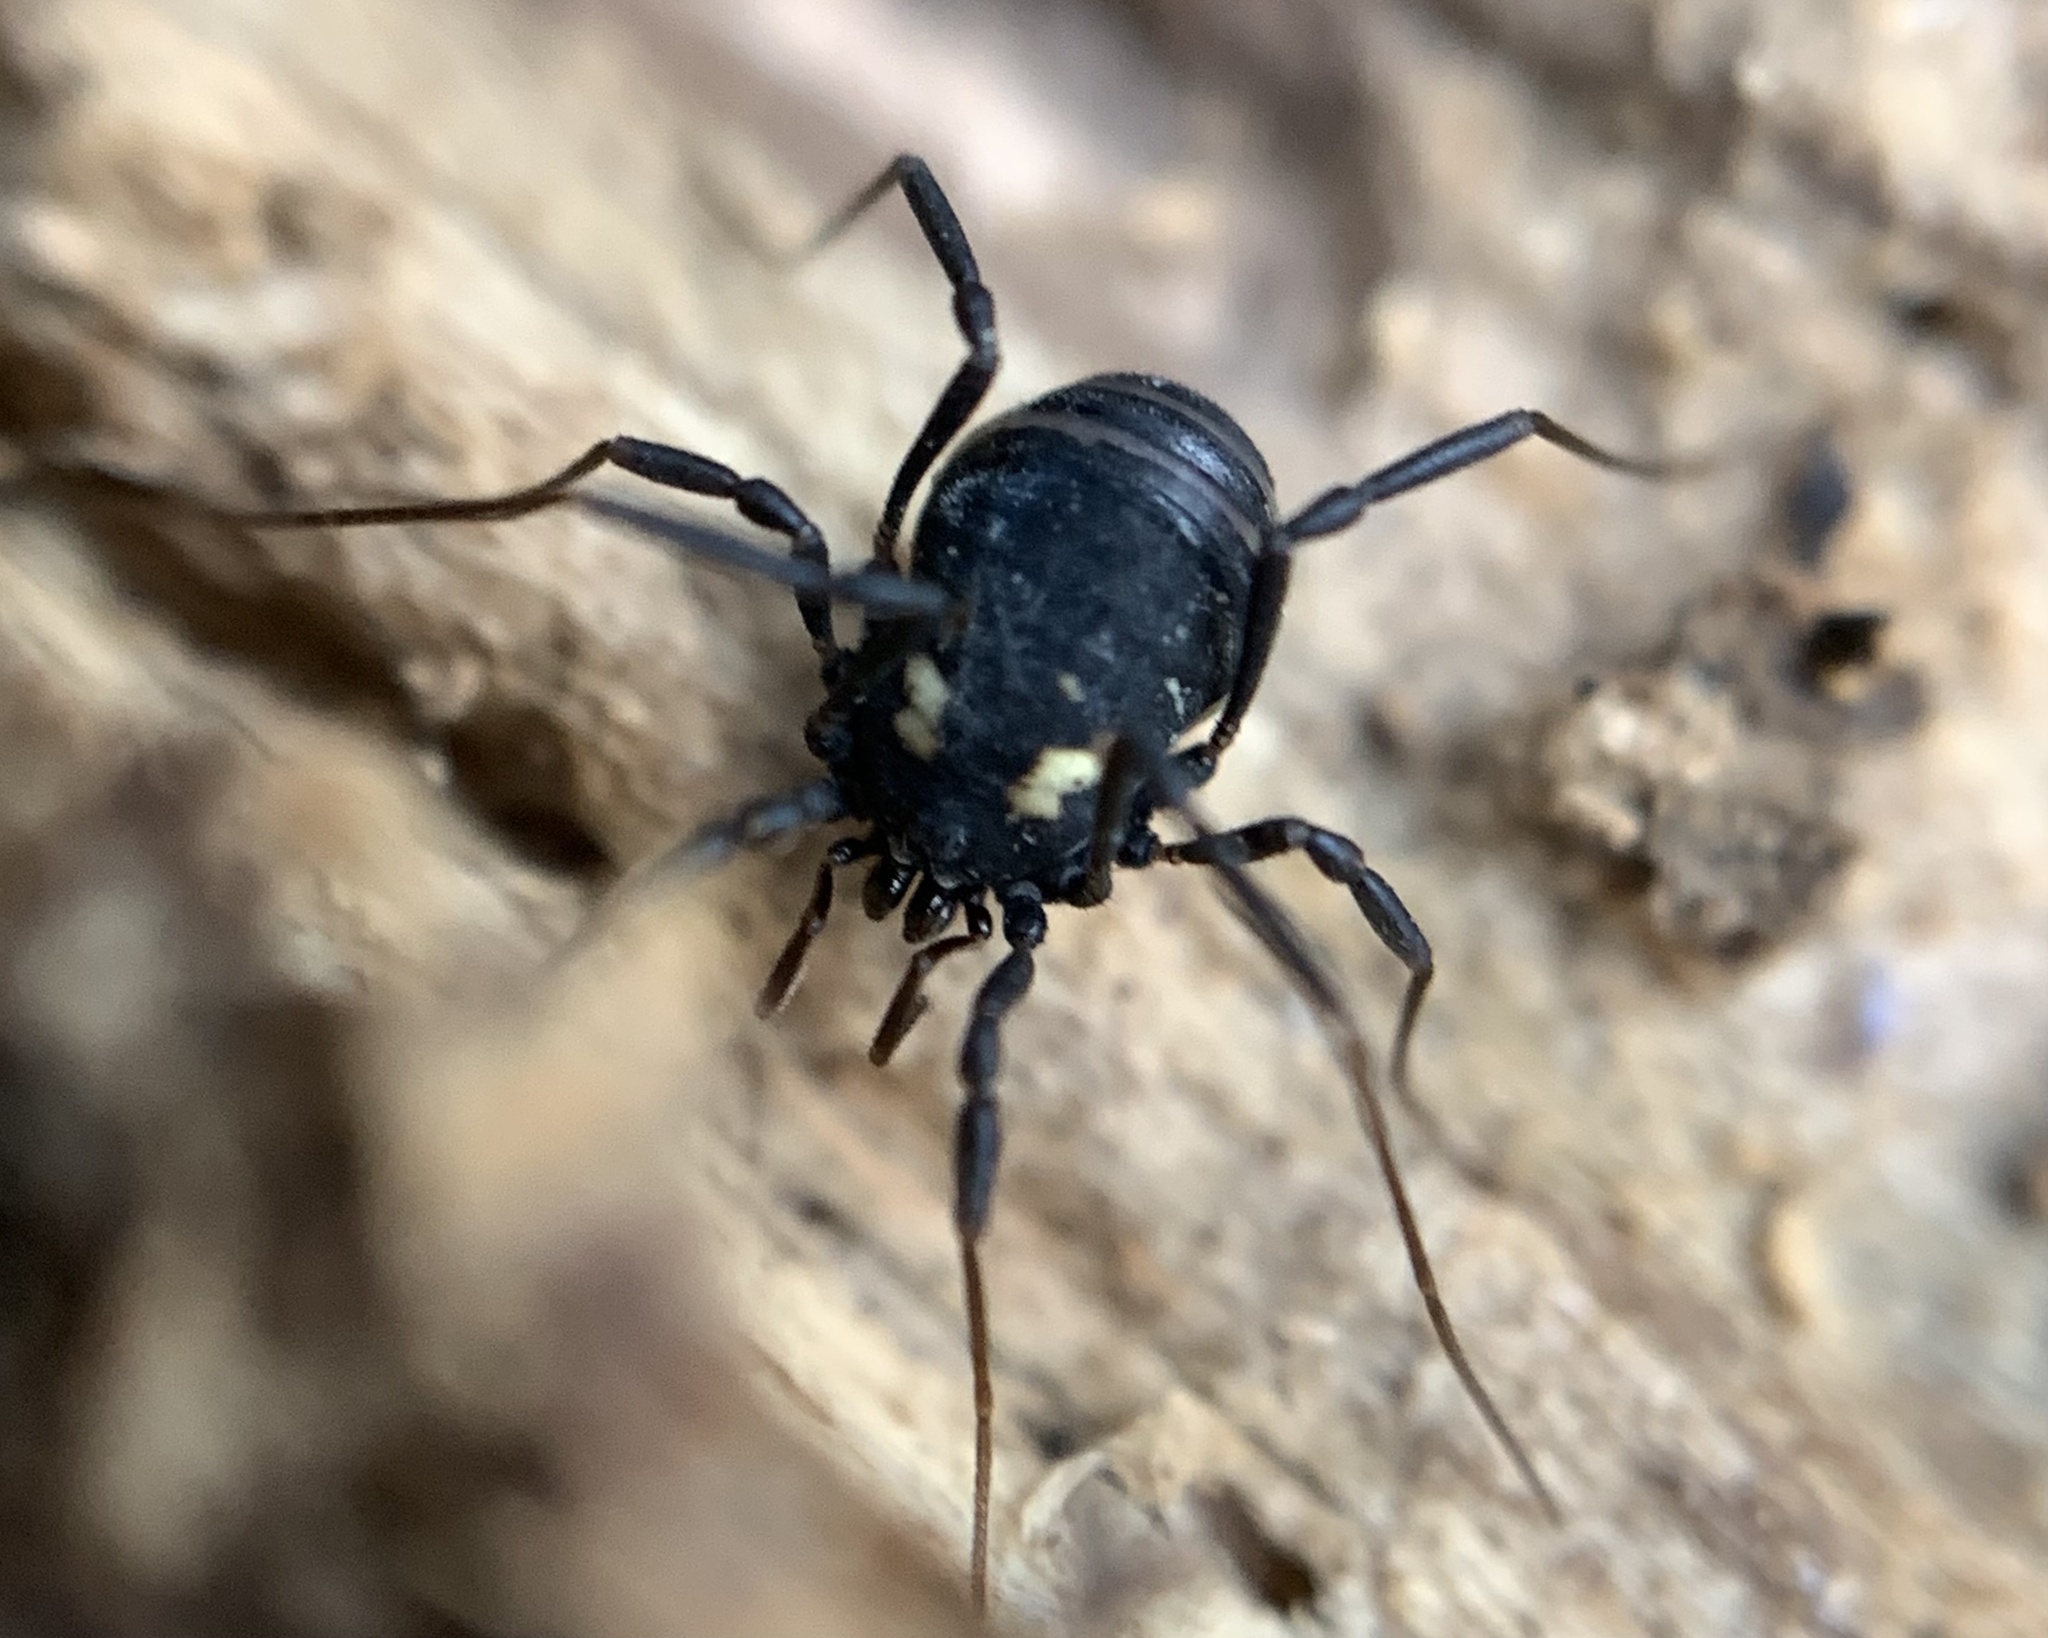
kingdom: Animalia
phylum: Arthropoda
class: Arachnida
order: Opiliones
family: Nemastomatidae
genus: Nemastoma
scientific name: Nemastoma bimaculatum
